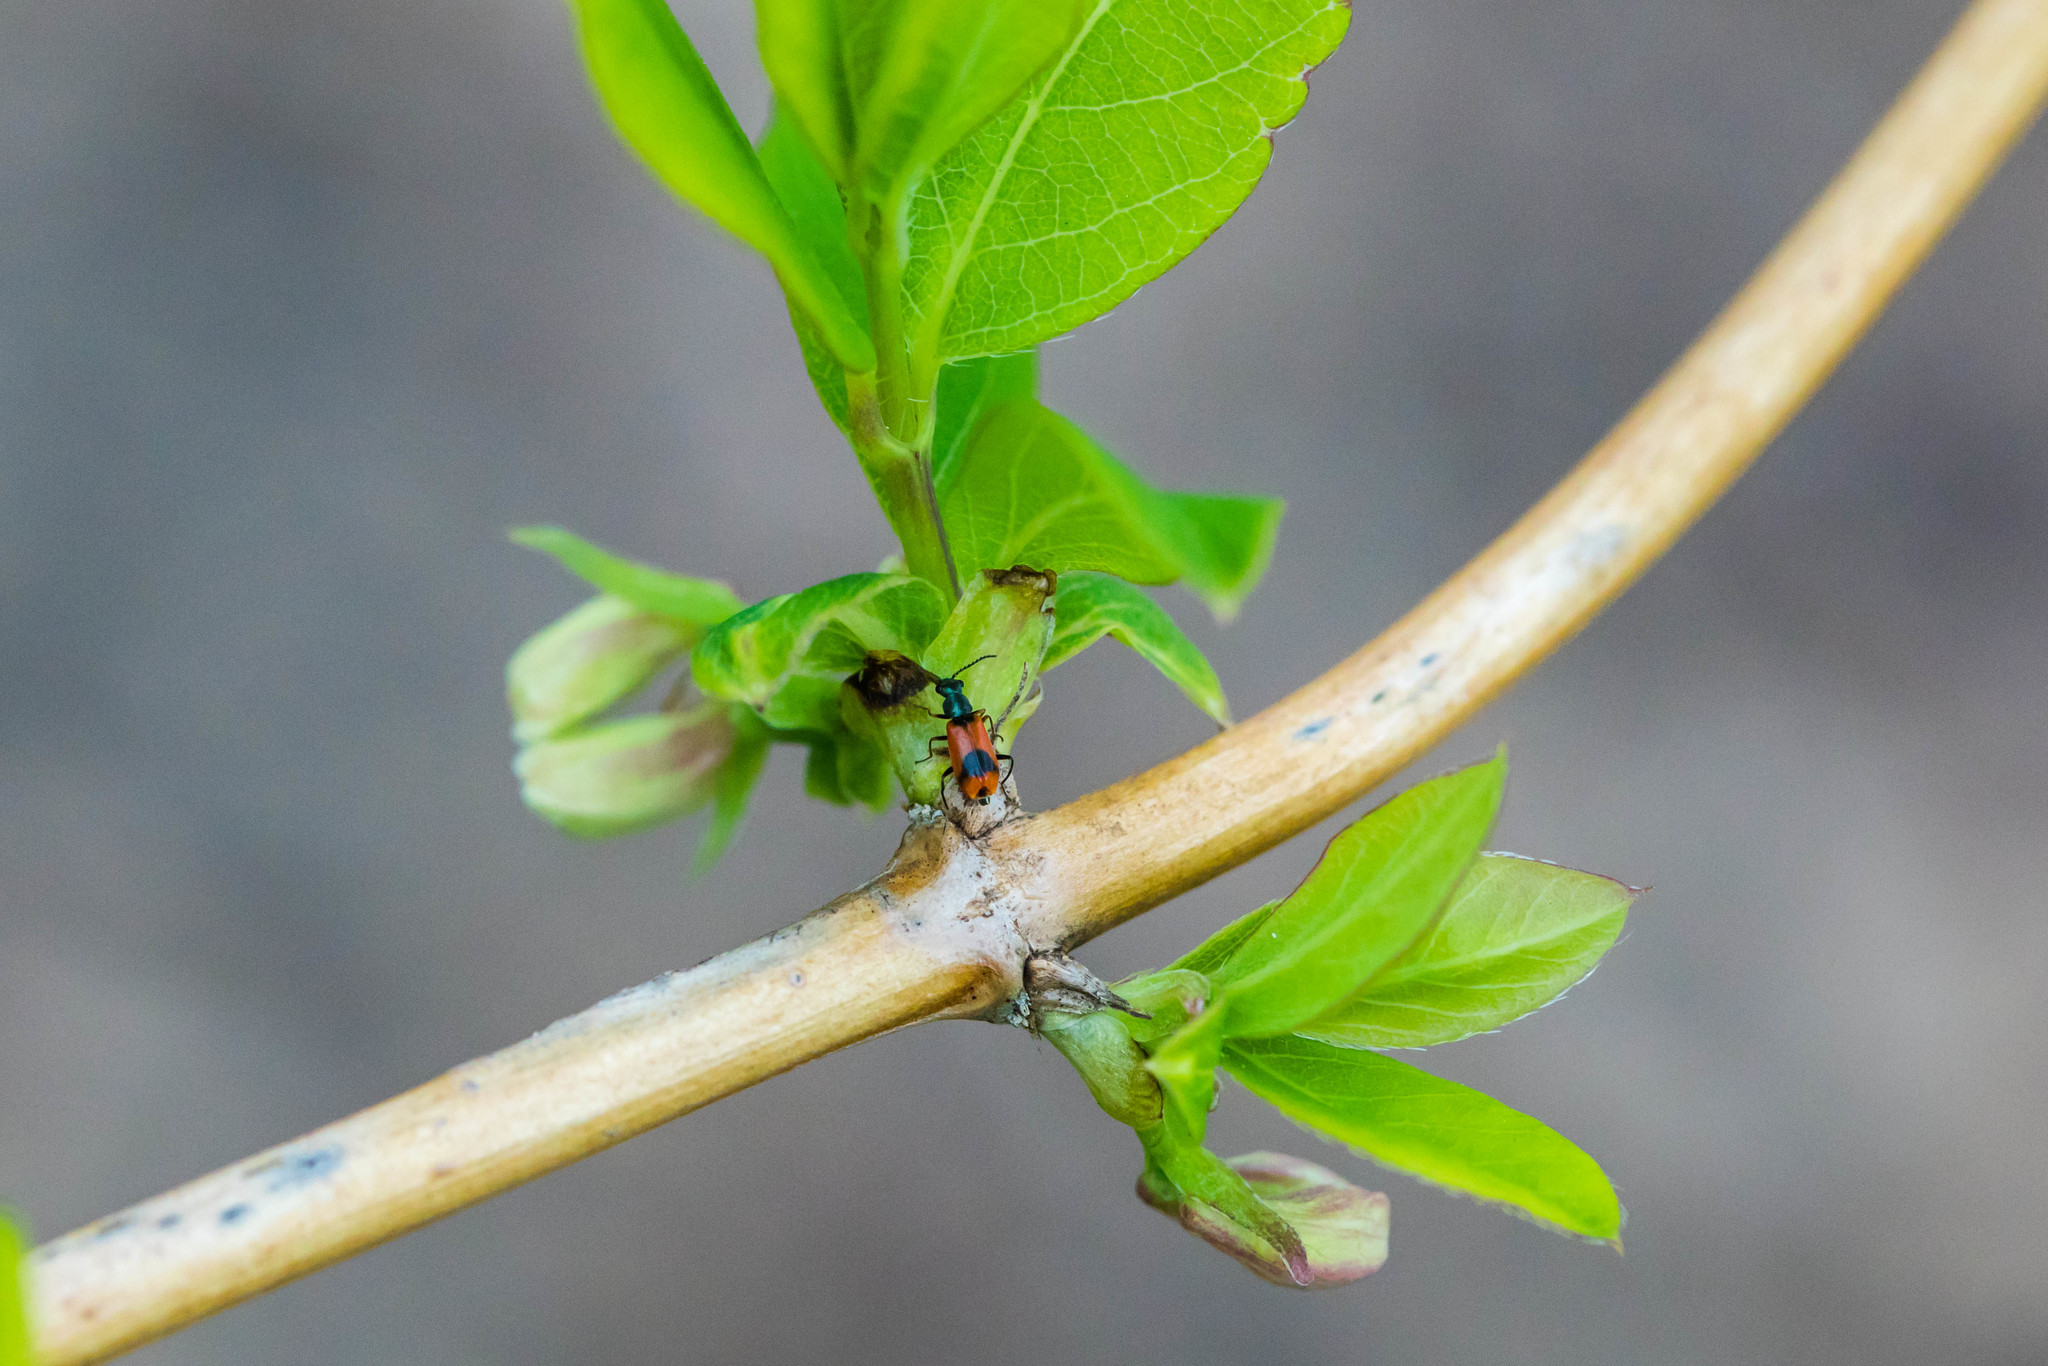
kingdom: Animalia
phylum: Arthropoda
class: Insecta
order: Coleoptera
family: Melyridae
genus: Anthocomus
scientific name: Anthocomus equestris
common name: Black-banded soft-winged flower beetle
